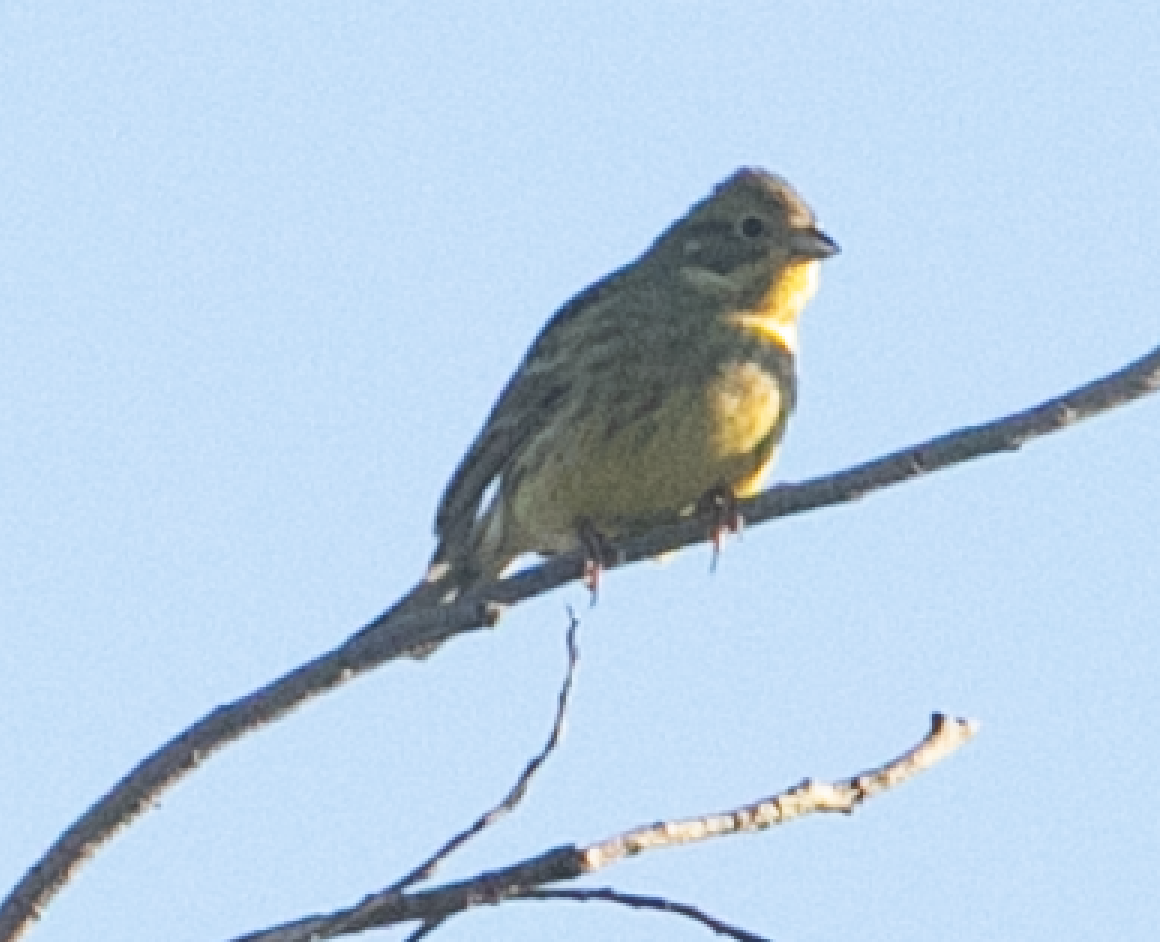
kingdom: Animalia
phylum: Chordata
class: Aves
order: Passeriformes
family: Emberizidae
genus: Emberiza
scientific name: Emberiza citrinella
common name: Yellowhammer
